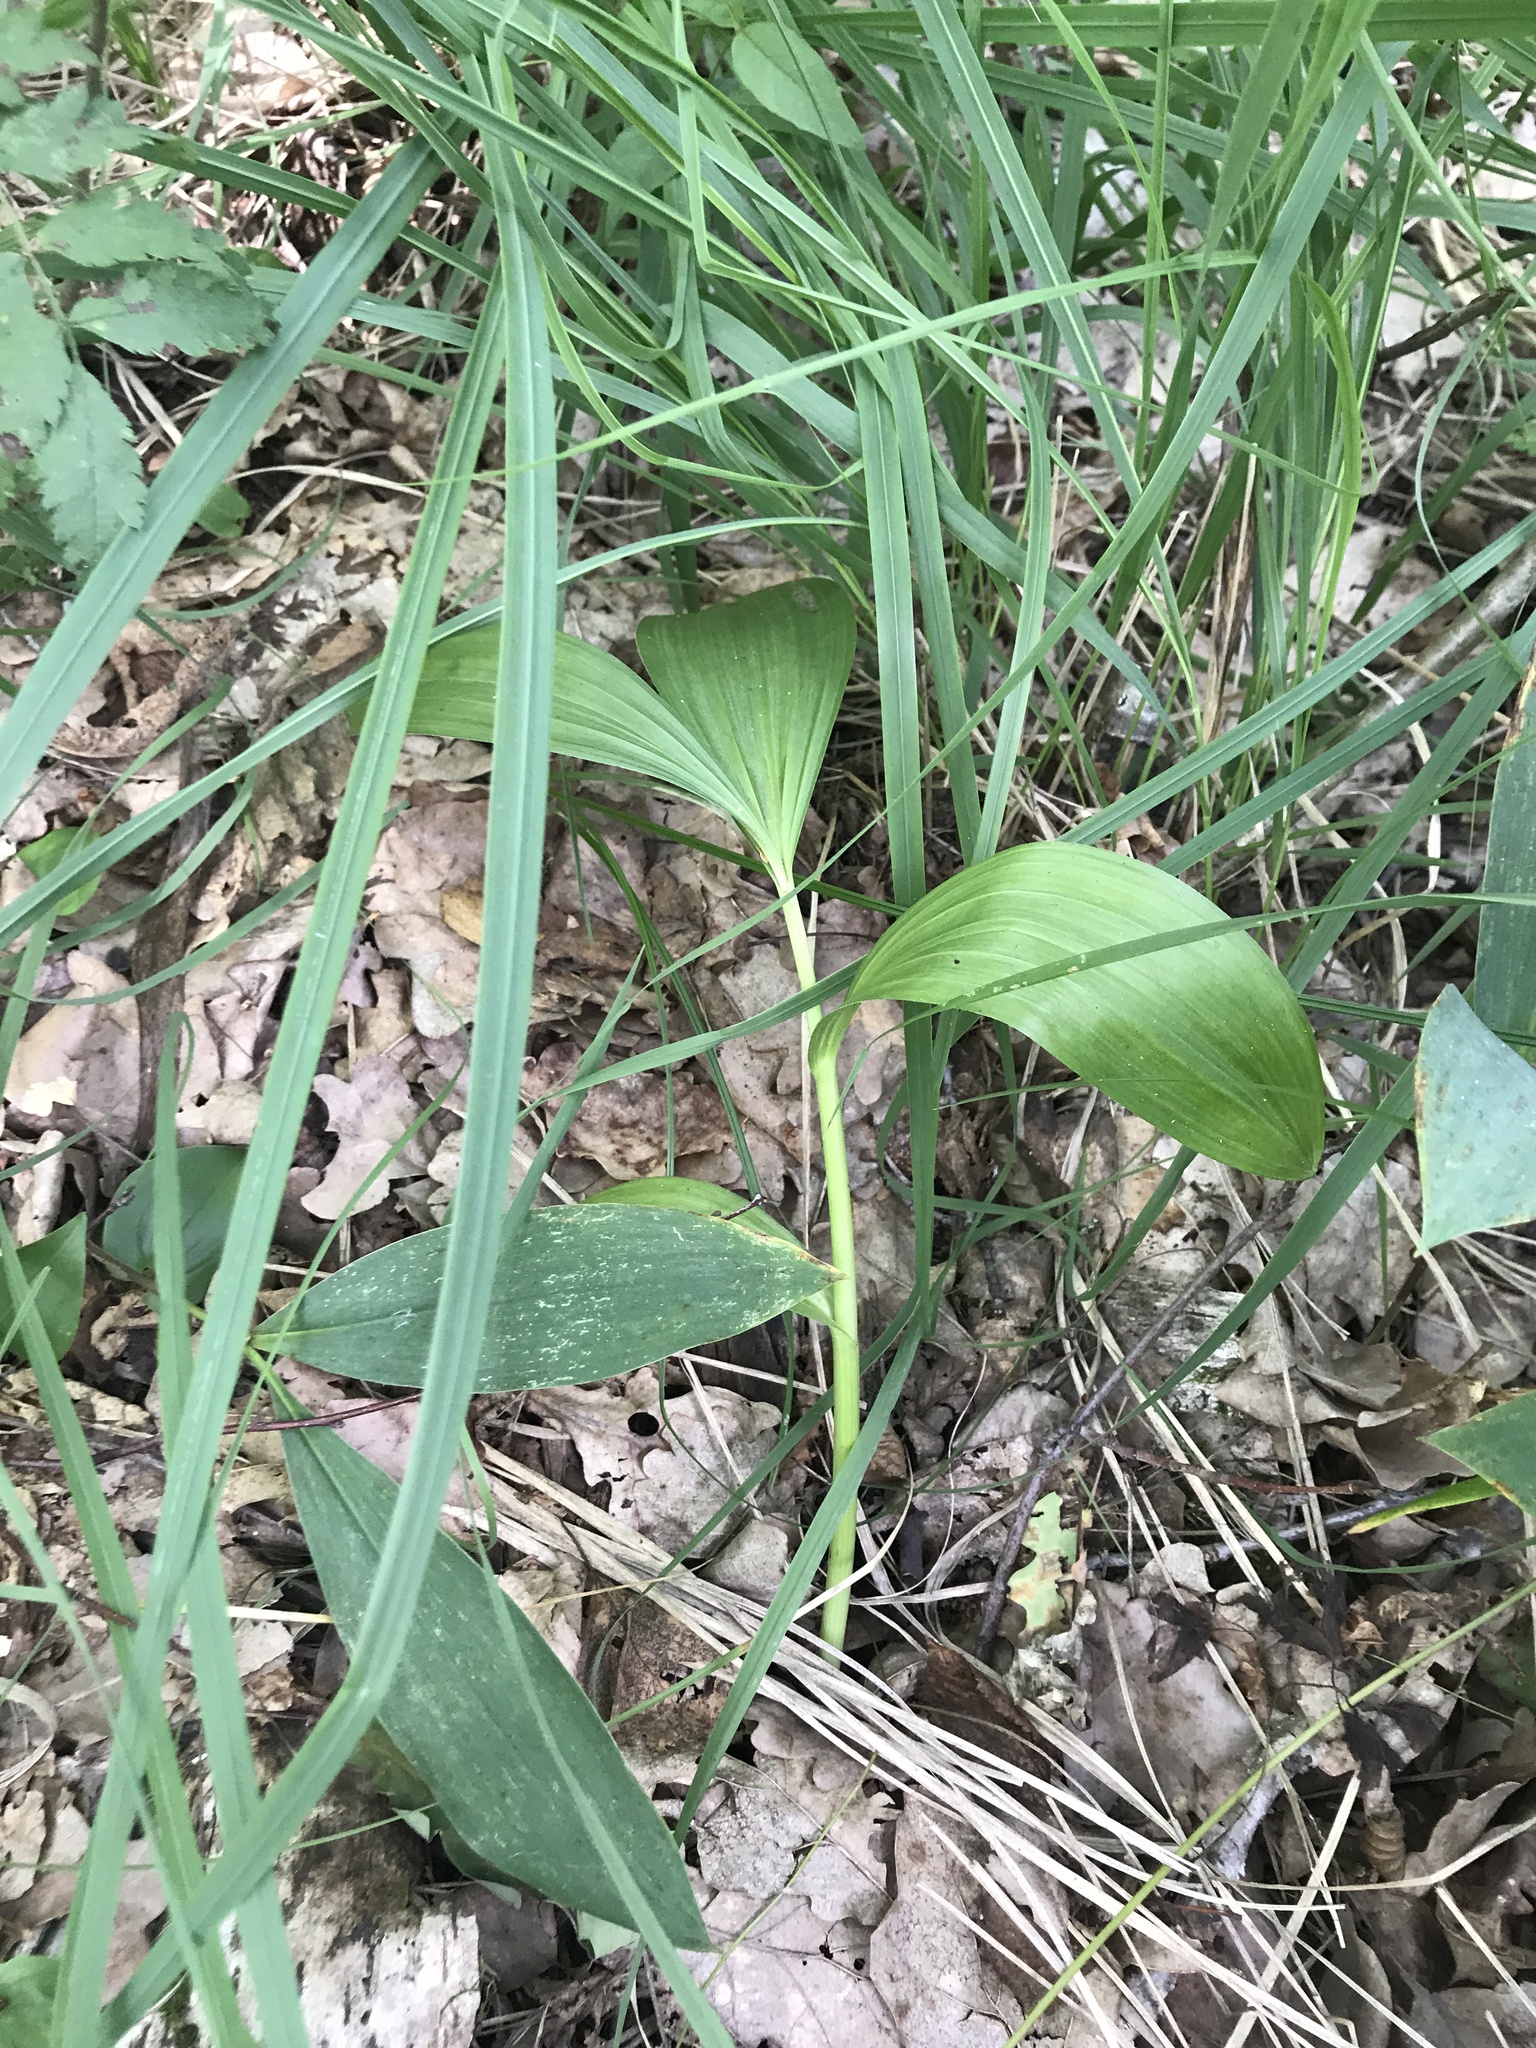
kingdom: Plantae
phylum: Tracheophyta
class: Liliopsida
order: Liliales
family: Melanthiaceae
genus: Veratrum
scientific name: Veratrum lobelianum
